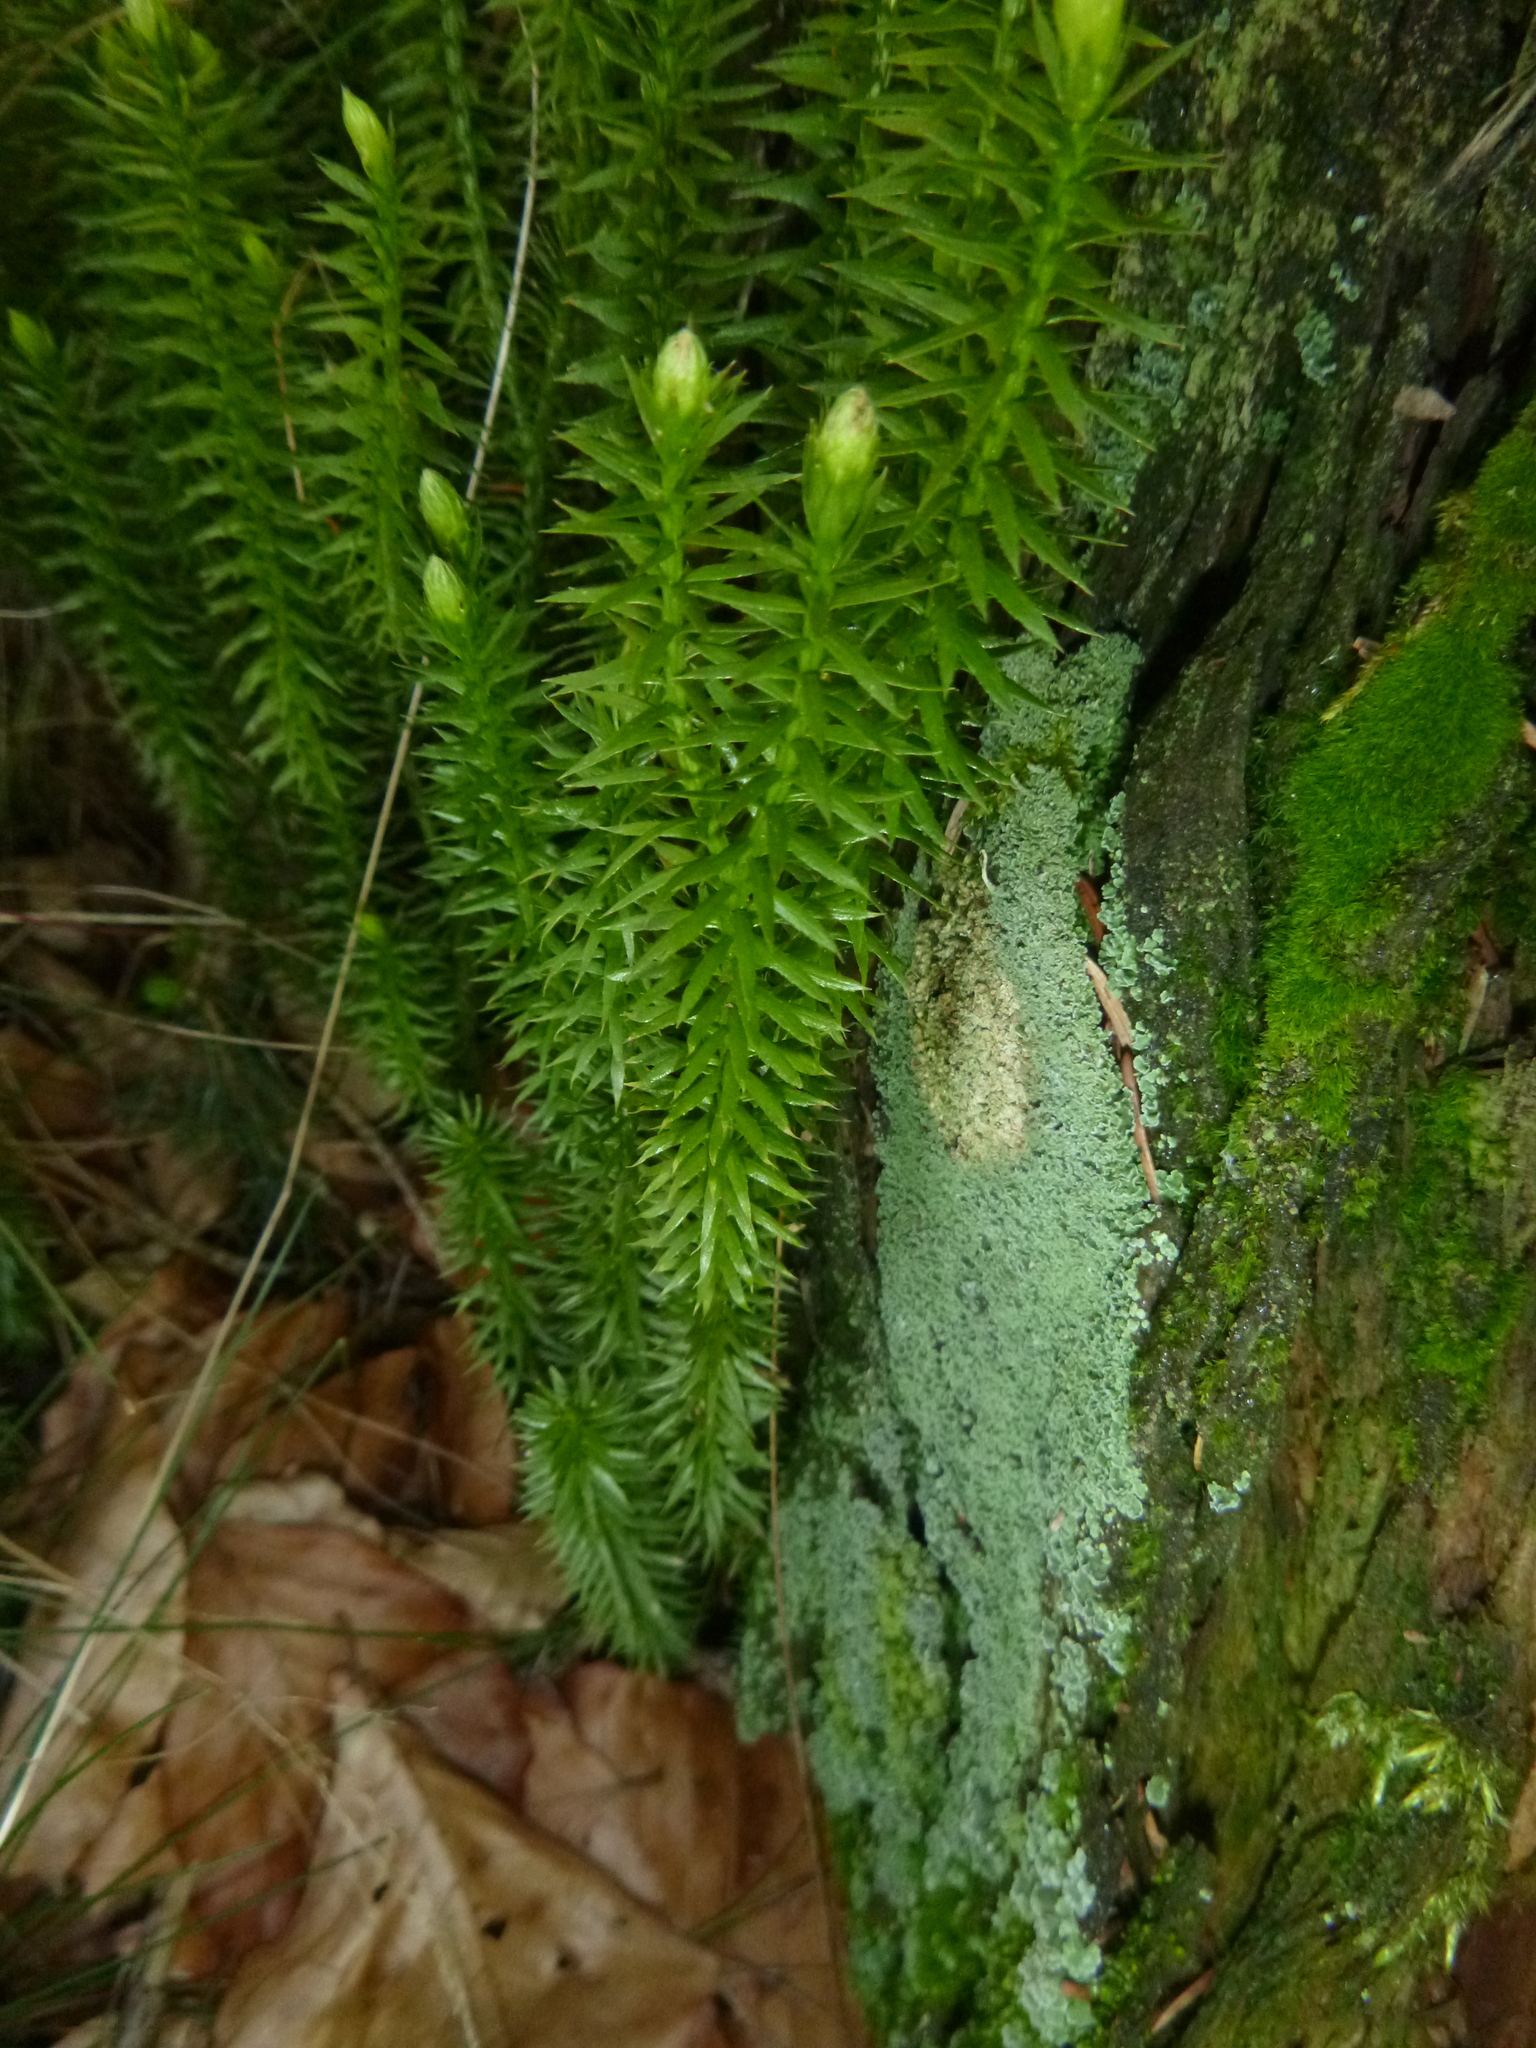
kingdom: Plantae
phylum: Tracheophyta
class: Lycopodiopsida
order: Lycopodiales
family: Lycopodiaceae
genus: Spinulum
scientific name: Spinulum annotinum
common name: Interrupted club-moss
